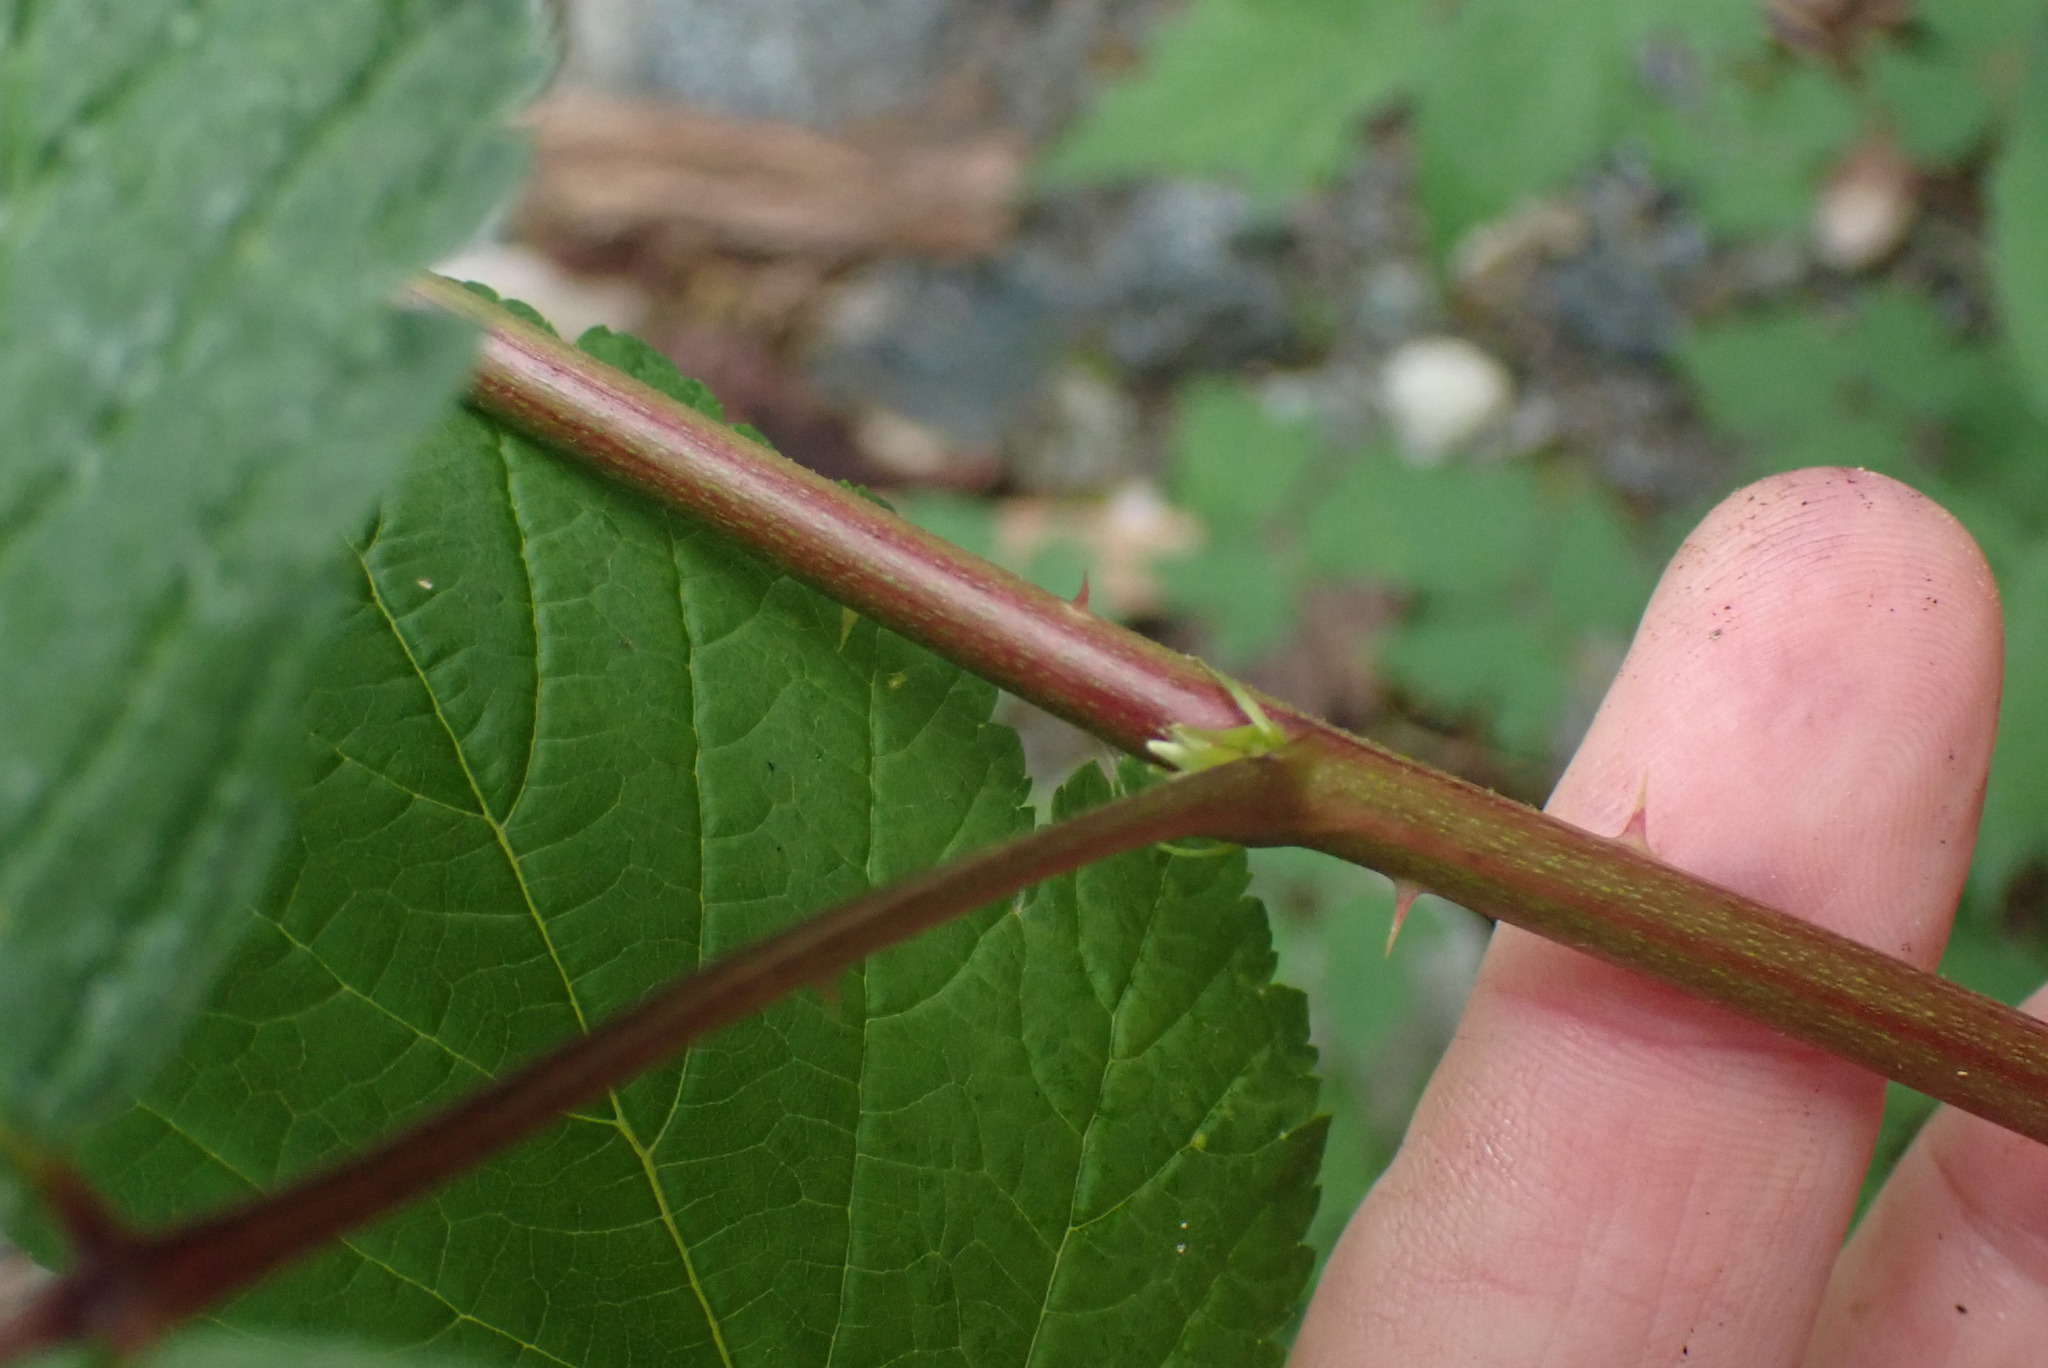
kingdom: Plantae
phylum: Tracheophyta
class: Magnoliopsida
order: Rosales
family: Rosaceae
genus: Rubus
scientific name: Rubus spectabilis
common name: Salmonberry
